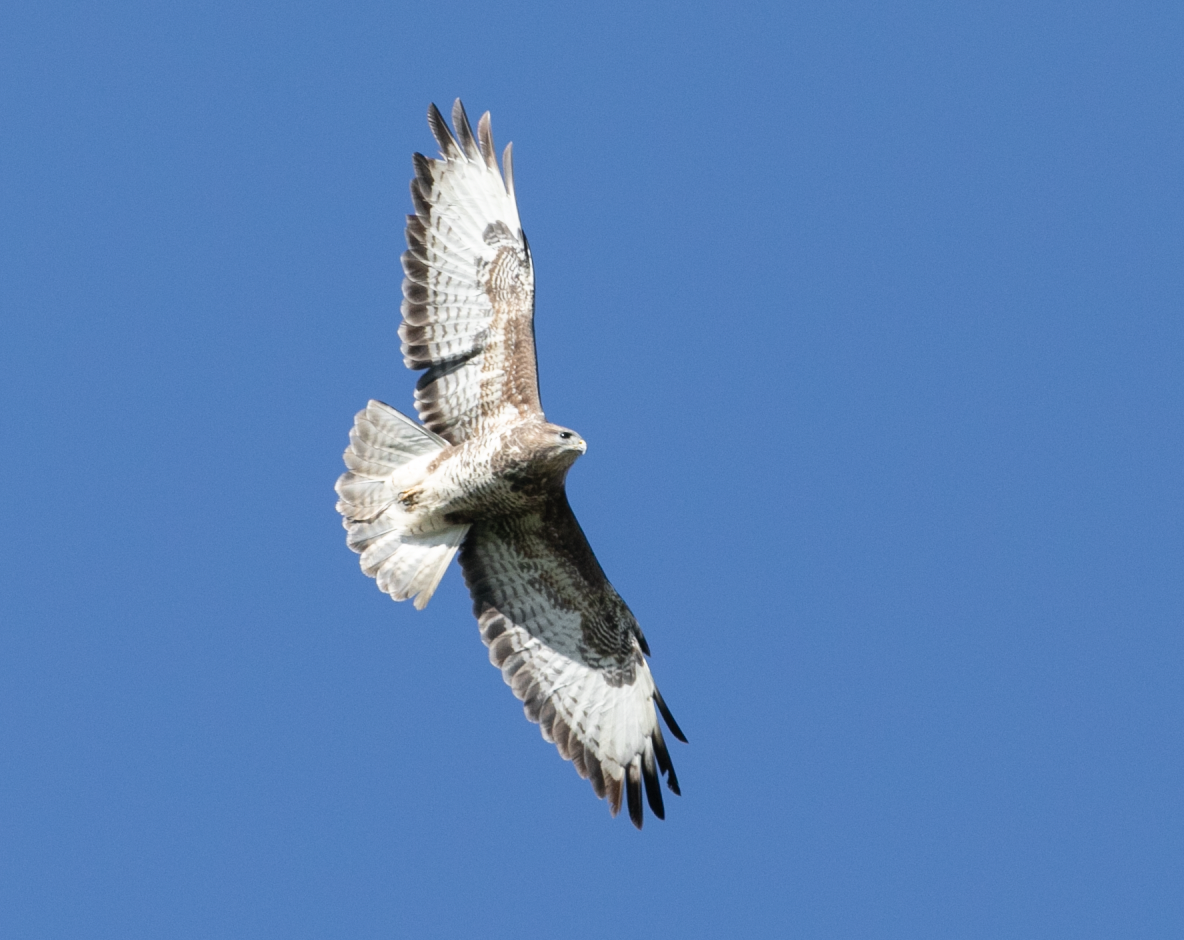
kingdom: Animalia
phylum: Chordata
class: Aves
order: Accipitriformes
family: Accipitridae
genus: Buteo
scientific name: Buteo buteo
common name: Common buzzard
